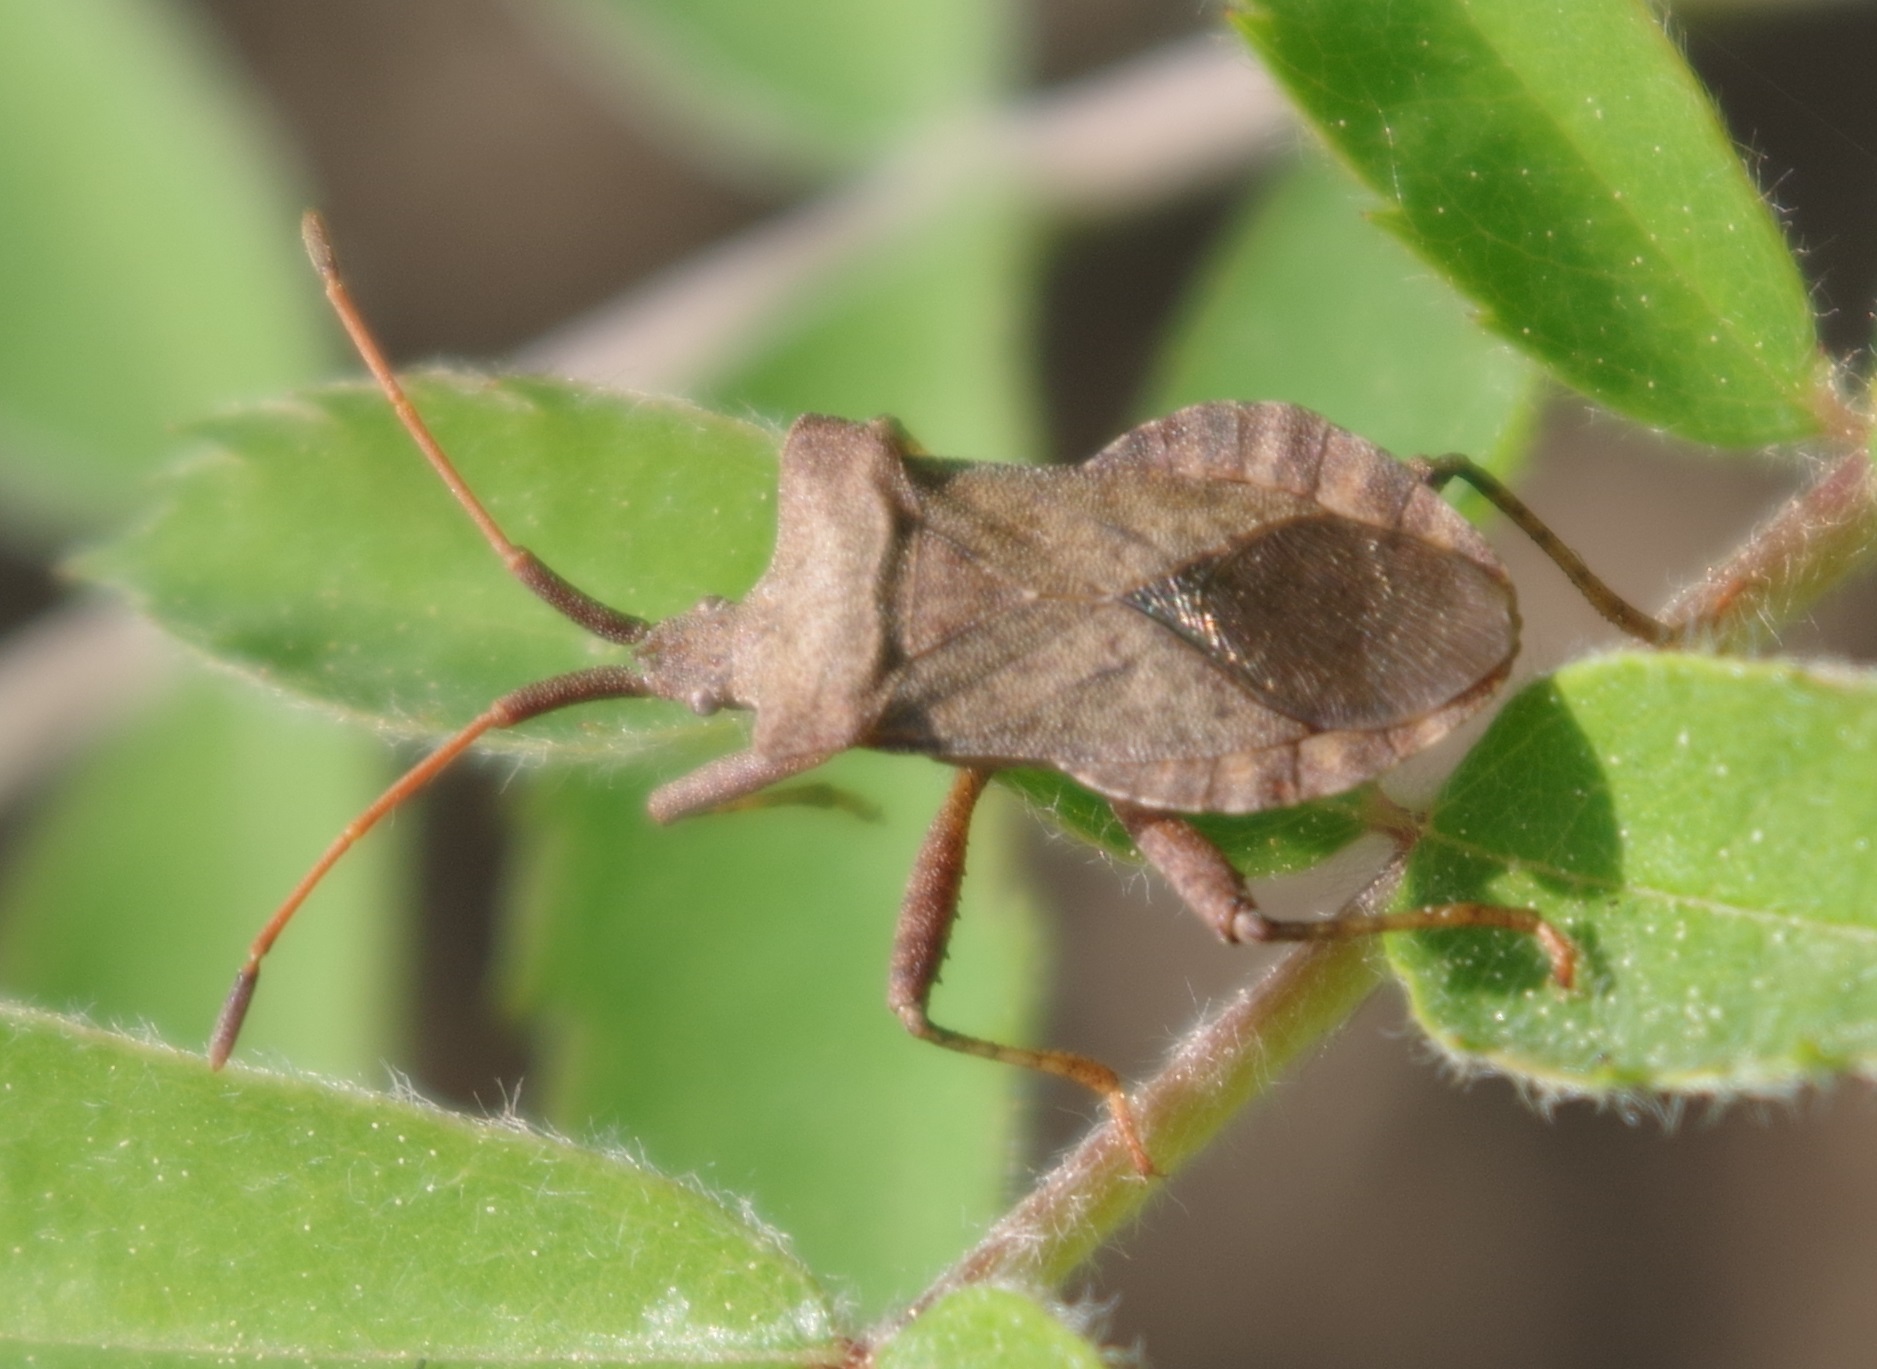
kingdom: Animalia
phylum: Arthropoda
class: Insecta
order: Hemiptera
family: Coreidae
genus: Coreus
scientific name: Coreus marginatus
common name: Dock bug
